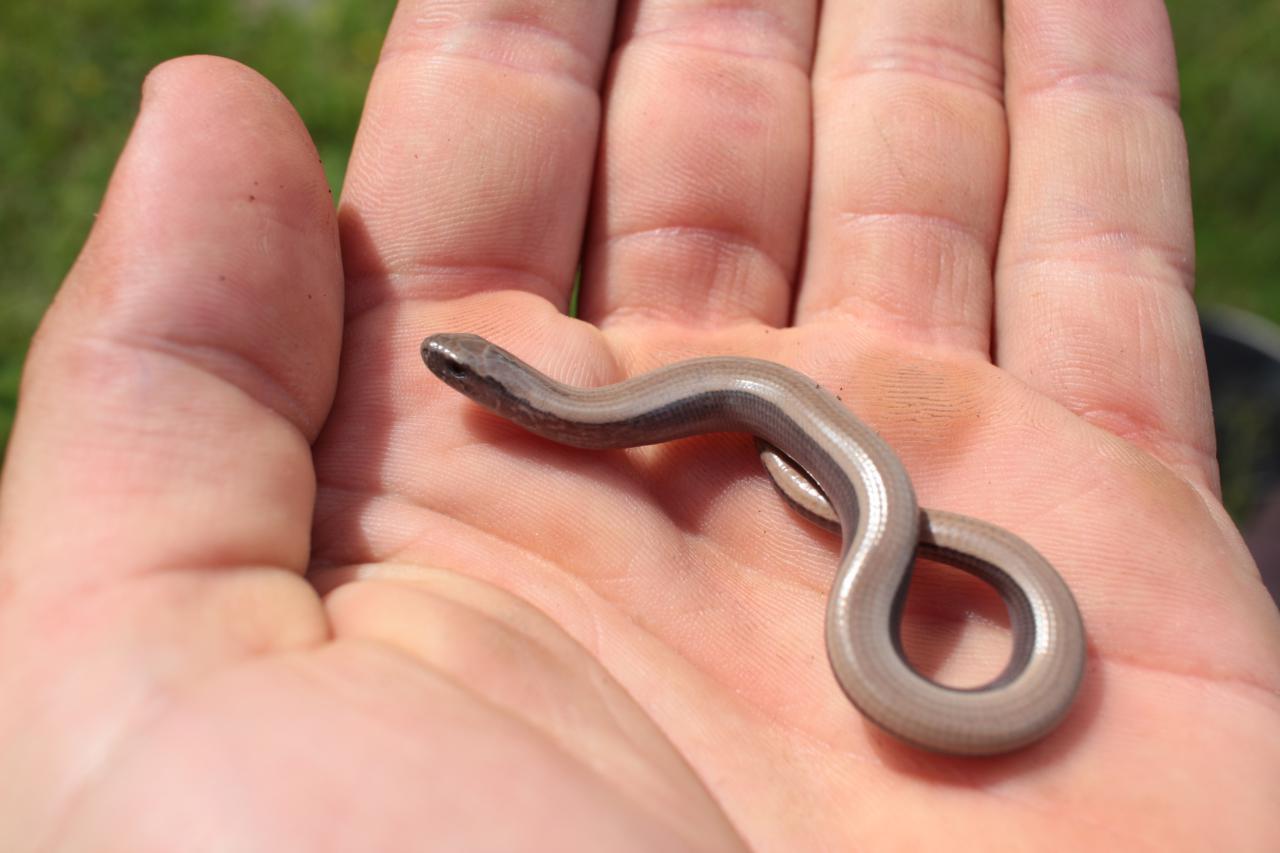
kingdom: Animalia
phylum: Chordata
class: Squamata
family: Anguidae
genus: Anguis
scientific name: Anguis fragilis
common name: Slow worm
